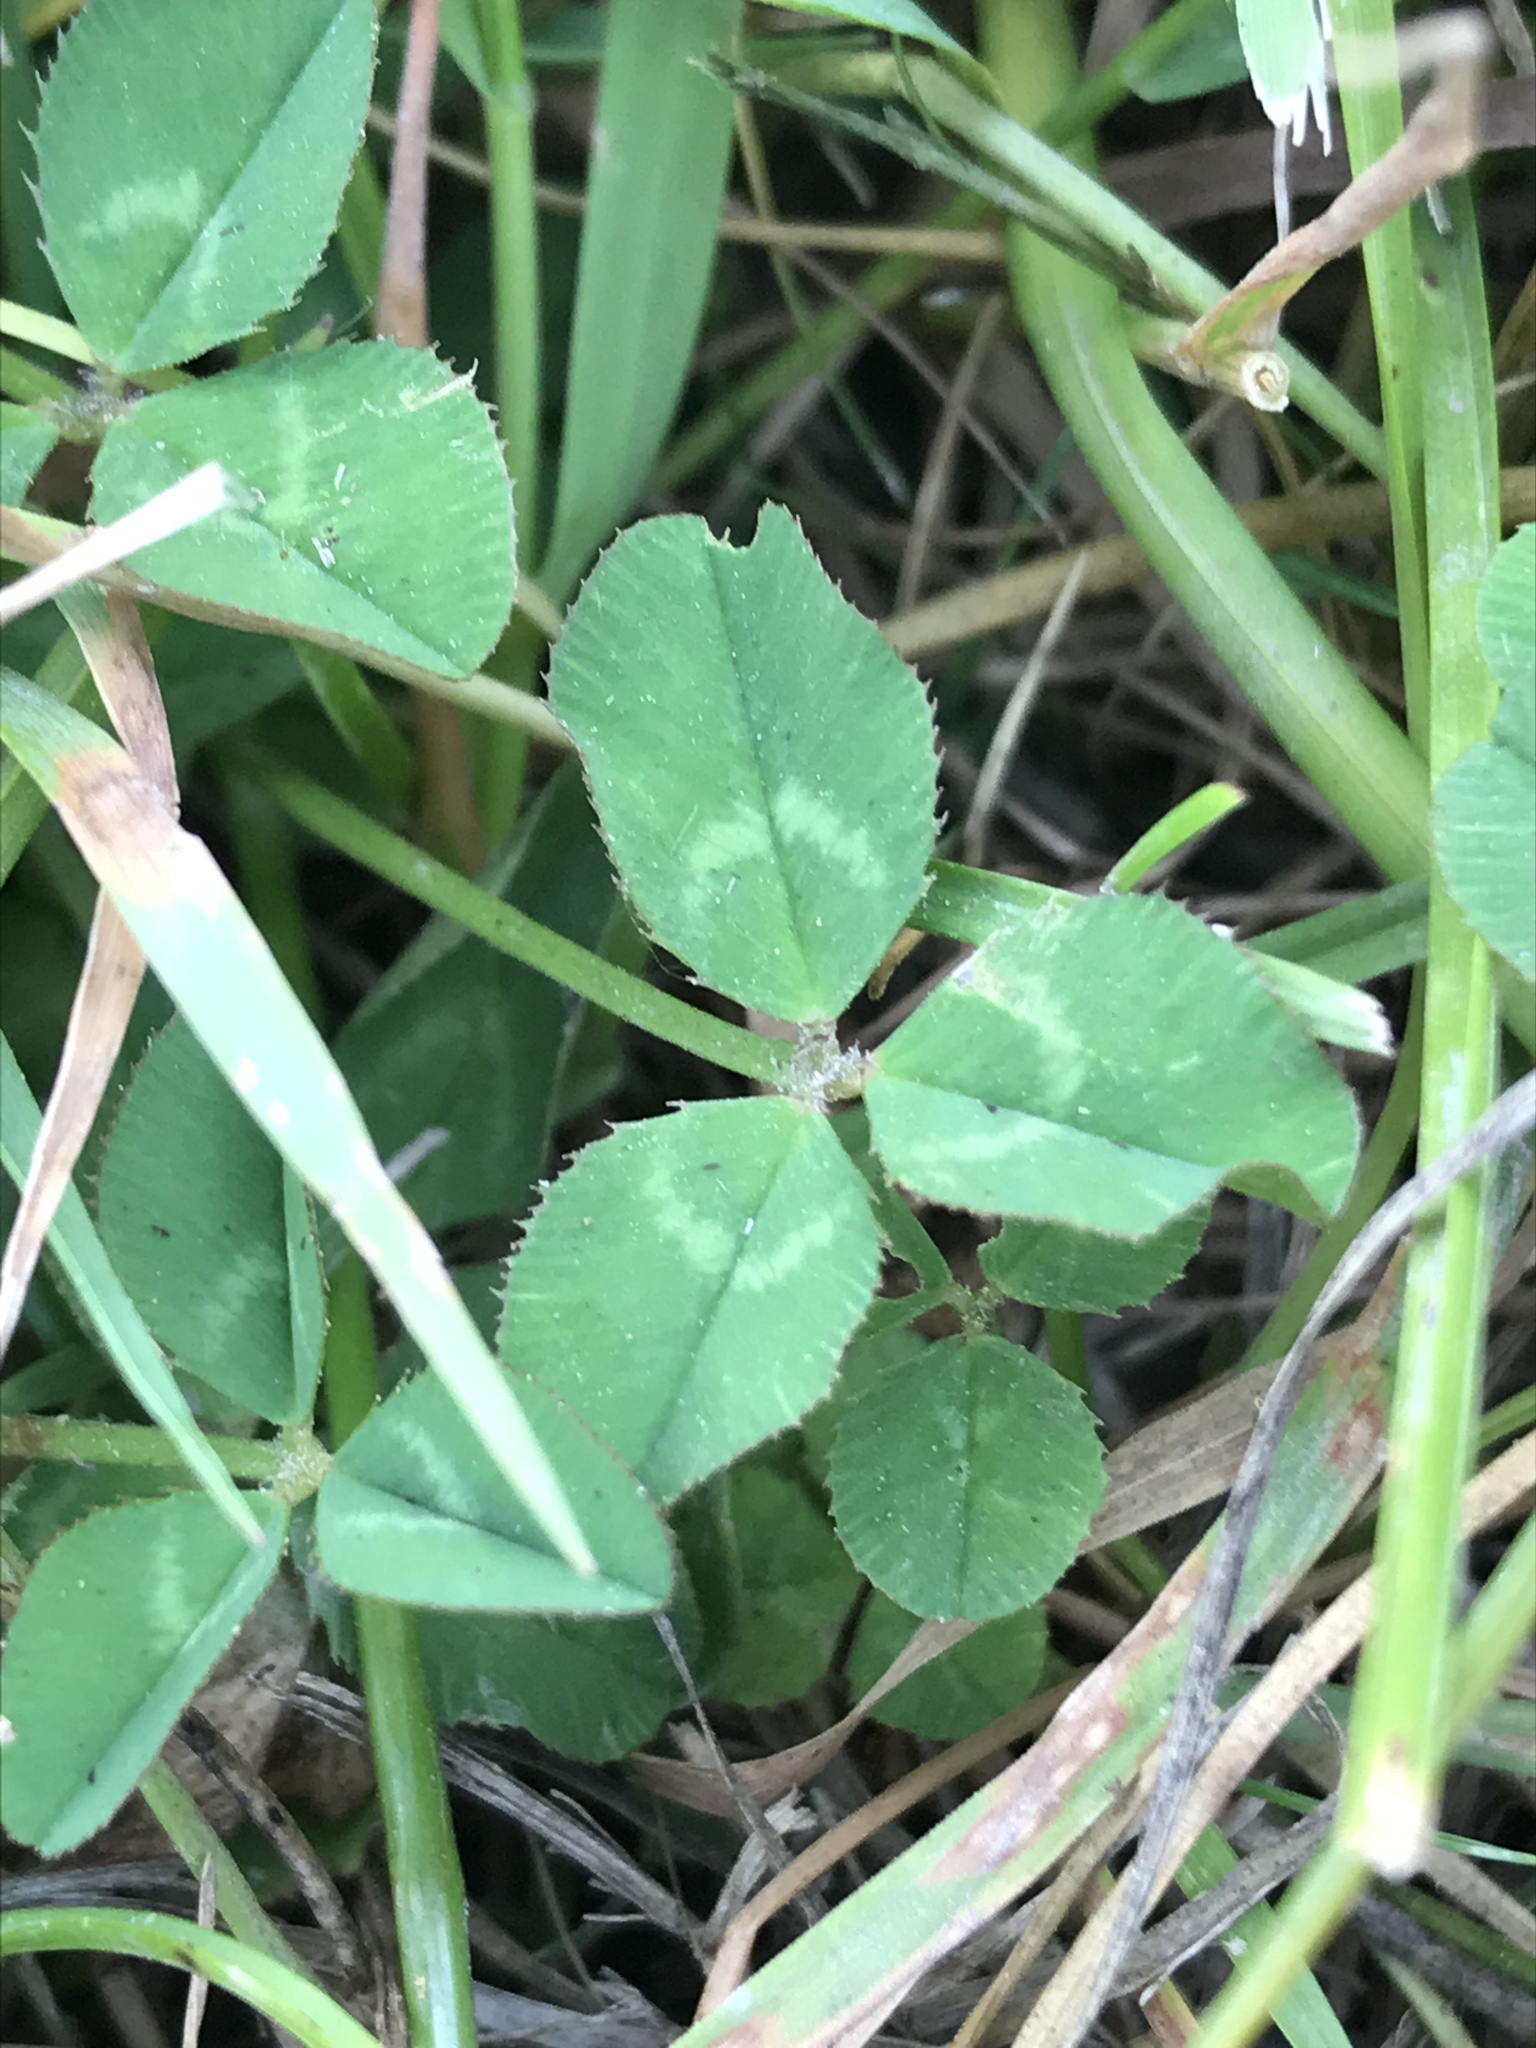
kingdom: Plantae
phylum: Tracheophyta
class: Magnoliopsida
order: Fabales
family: Fabaceae
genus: Trifolium
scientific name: Trifolium repens
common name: White clover
